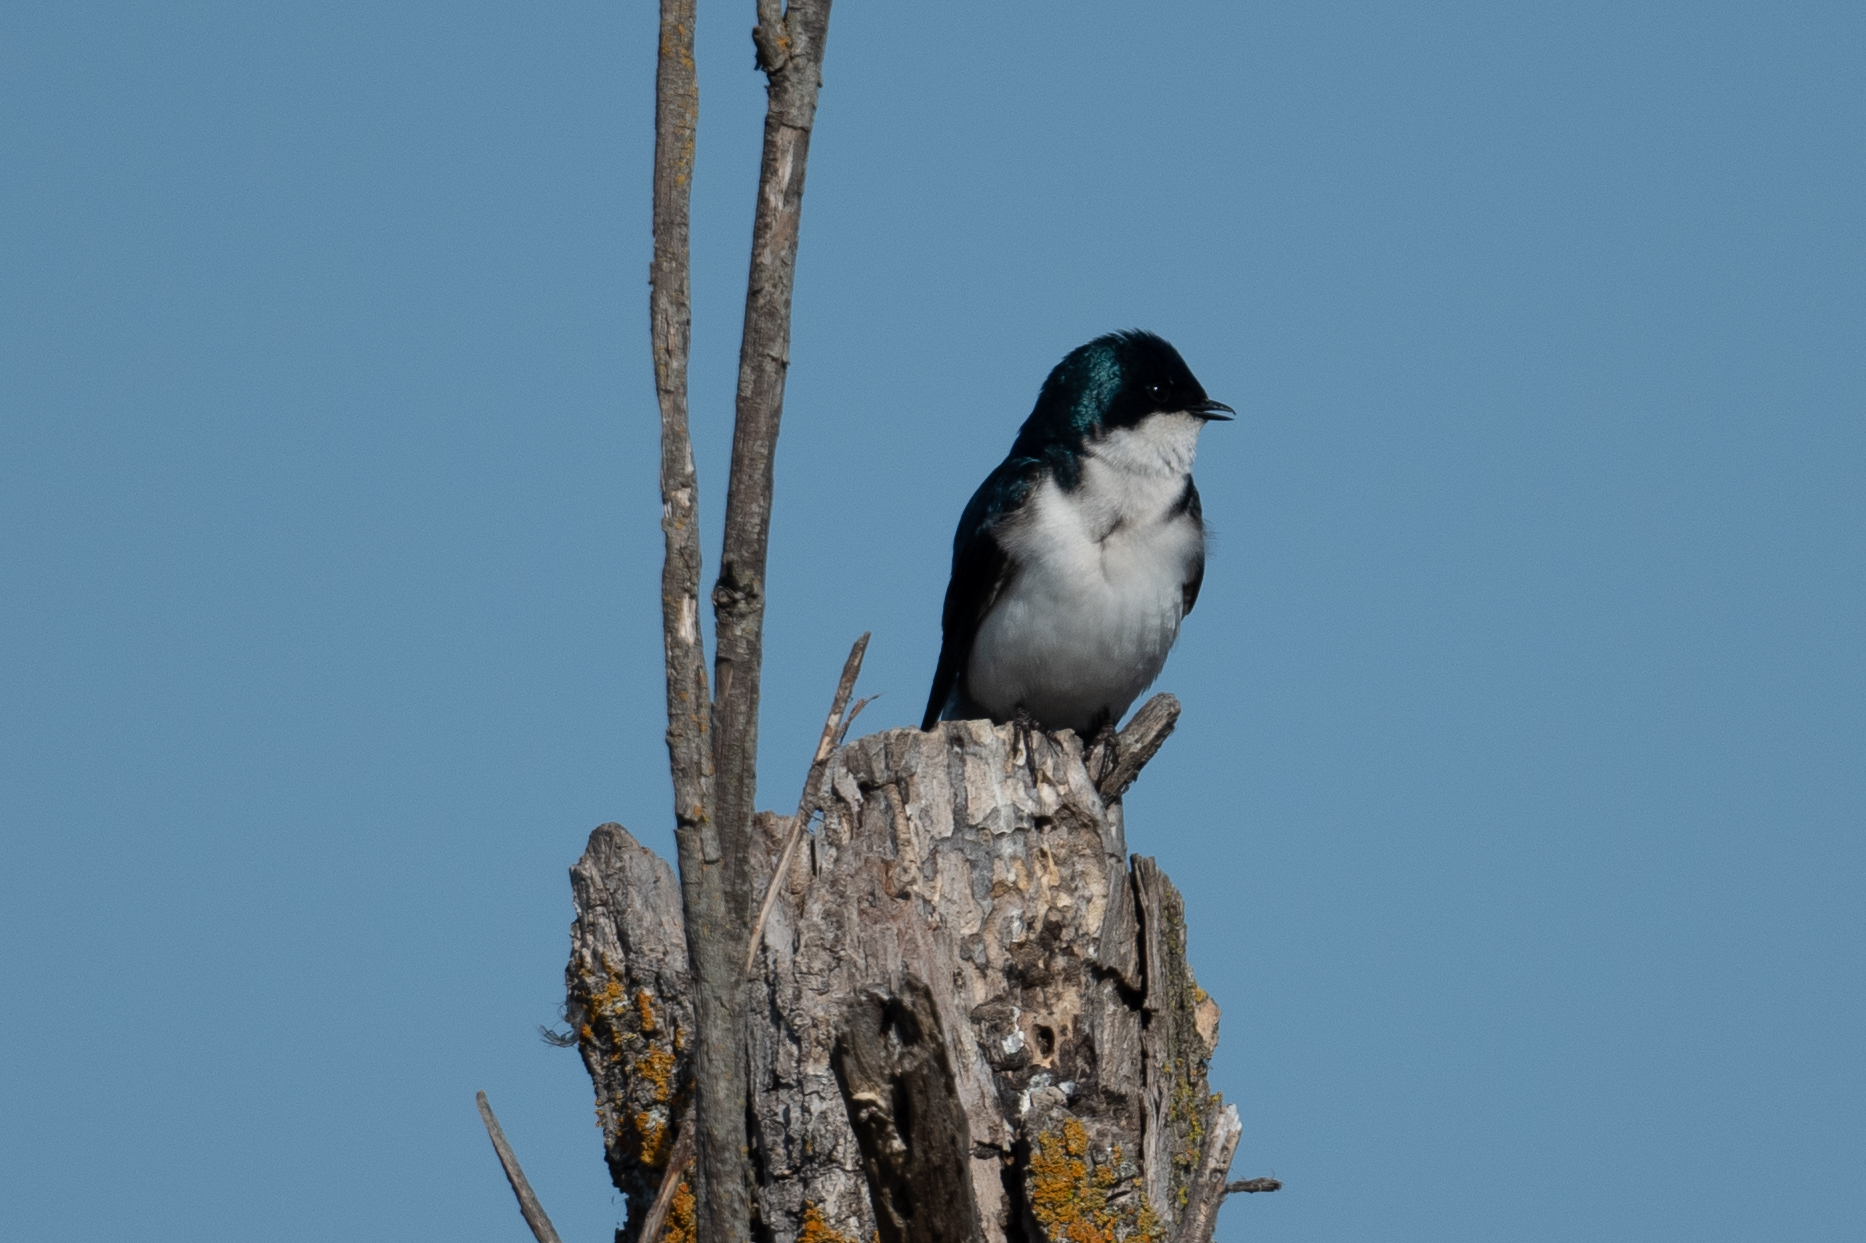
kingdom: Animalia
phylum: Chordata
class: Aves
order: Passeriformes
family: Hirundinidae
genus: Tachycineta
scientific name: Tachycineta bicolor
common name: Tree swallow
